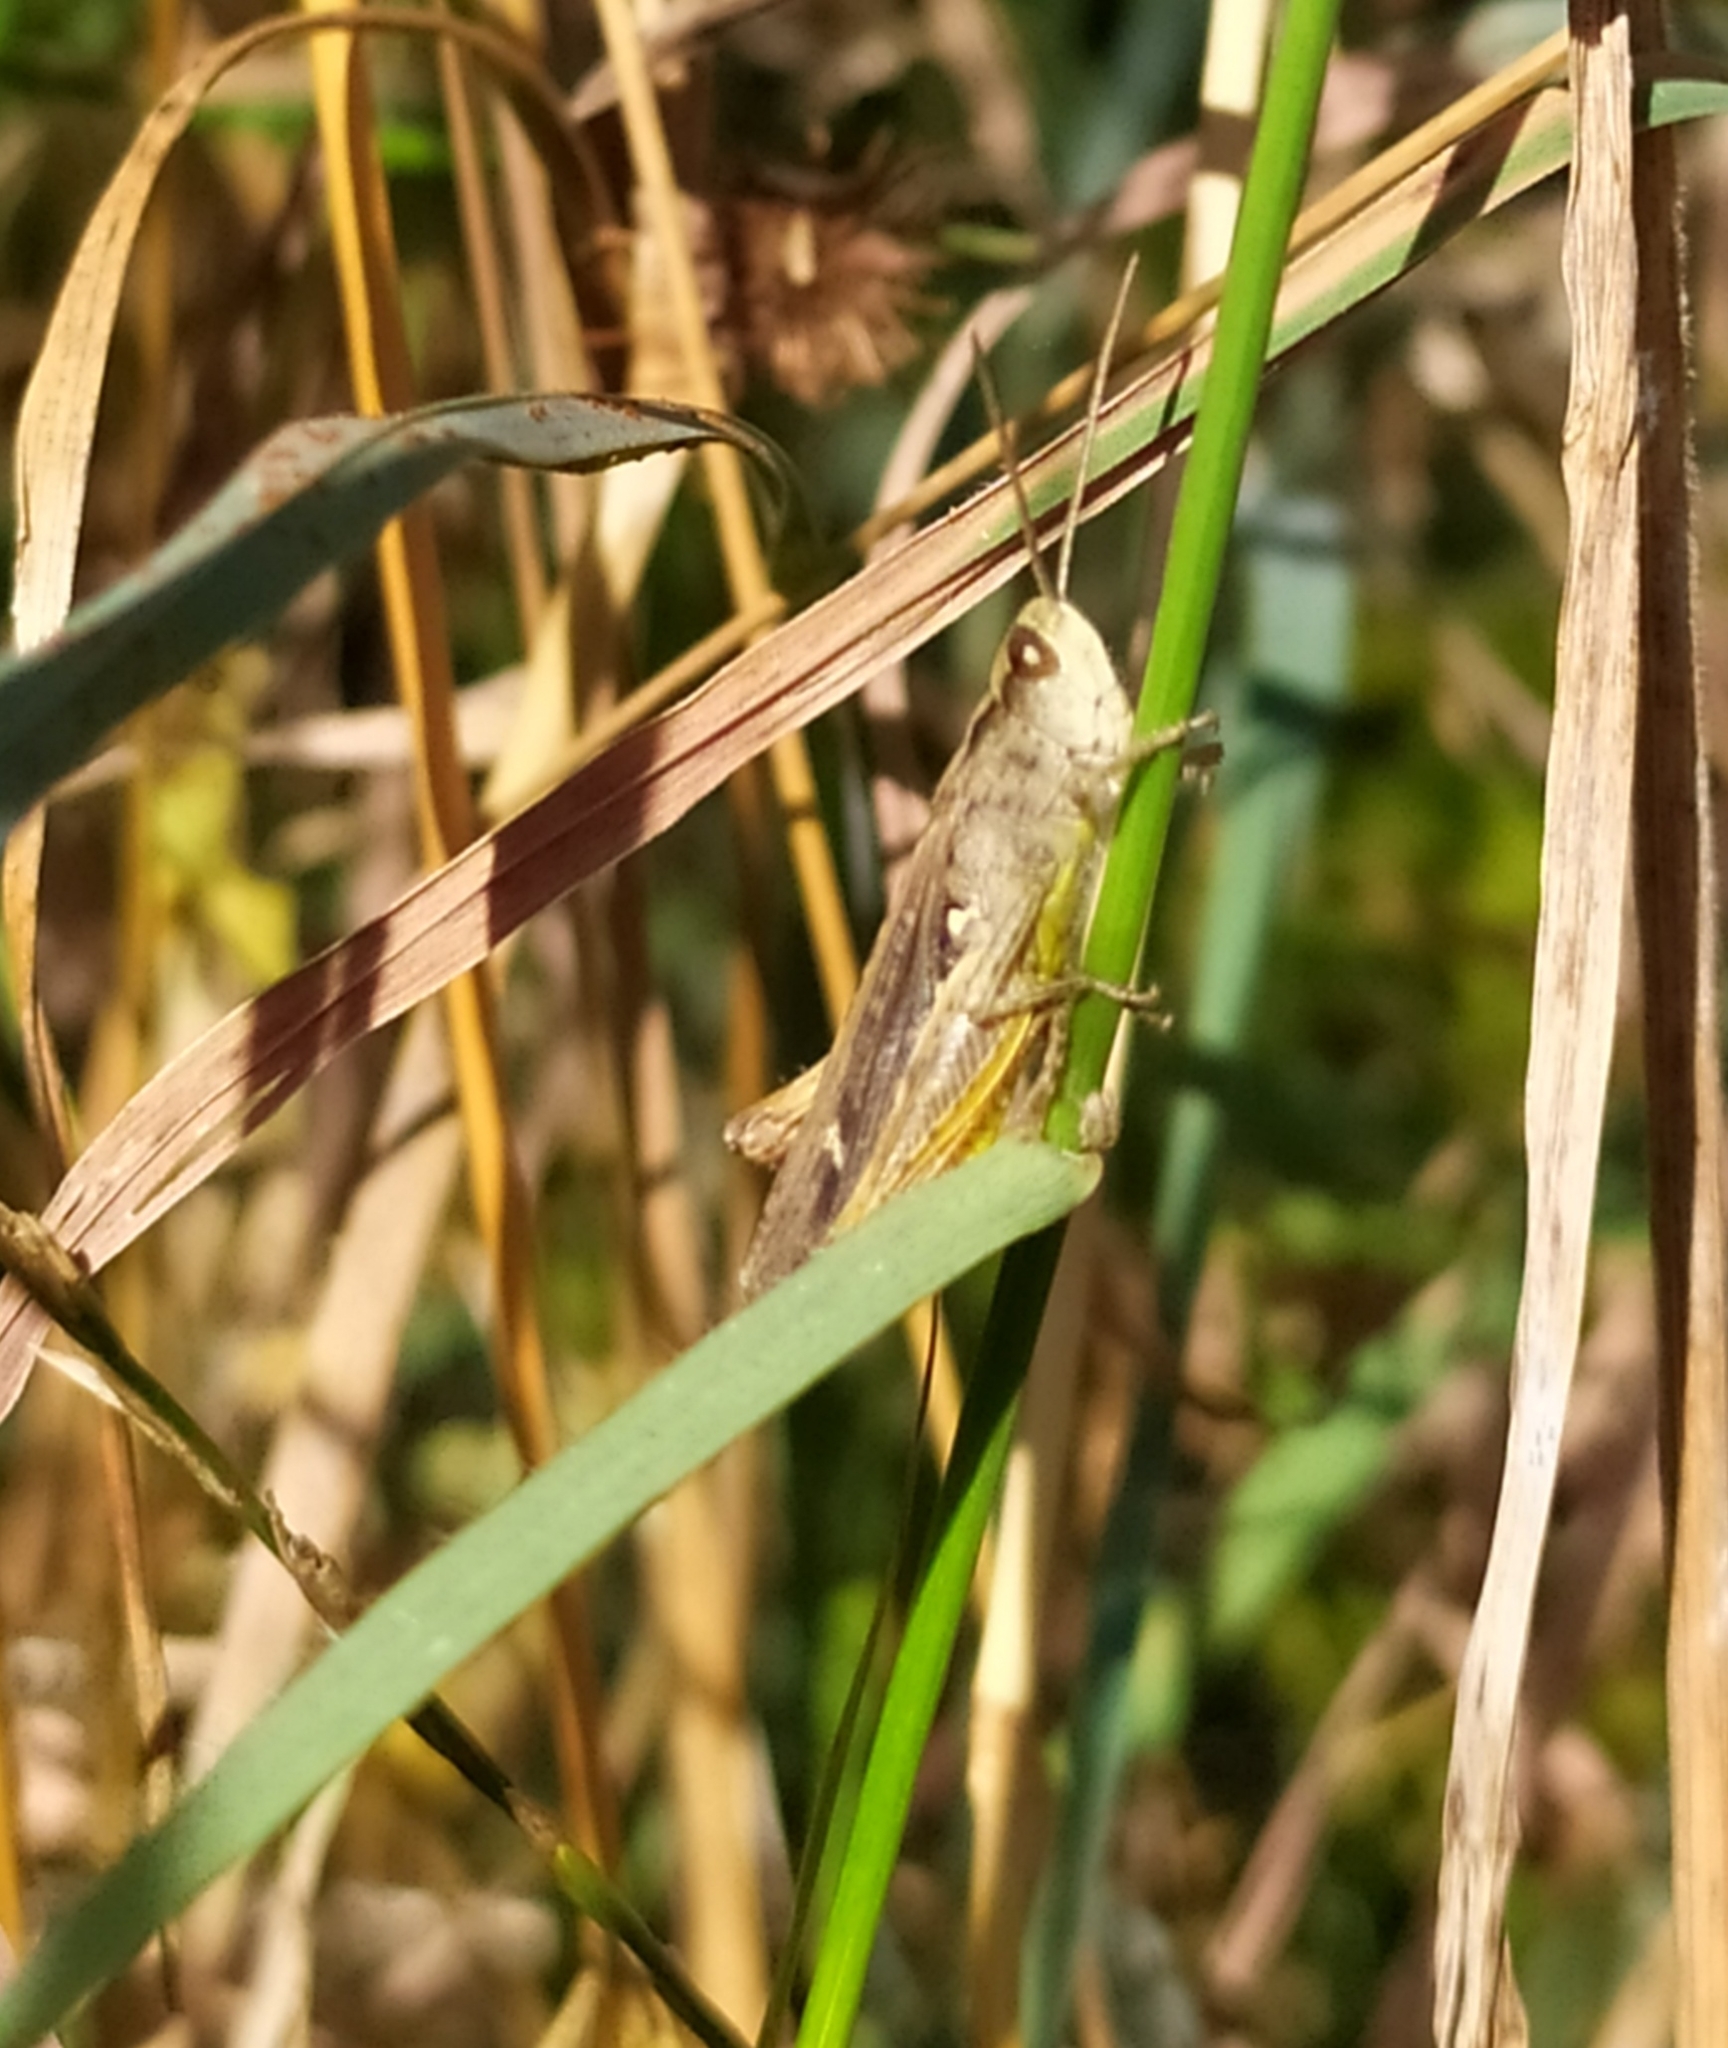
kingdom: Animalia
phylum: Arthropoda
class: Insecta
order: Orthoptera
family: Acrididae
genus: Chorthippus
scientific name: Chorthippus biguttulus
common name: Bow-winged grasshopper
